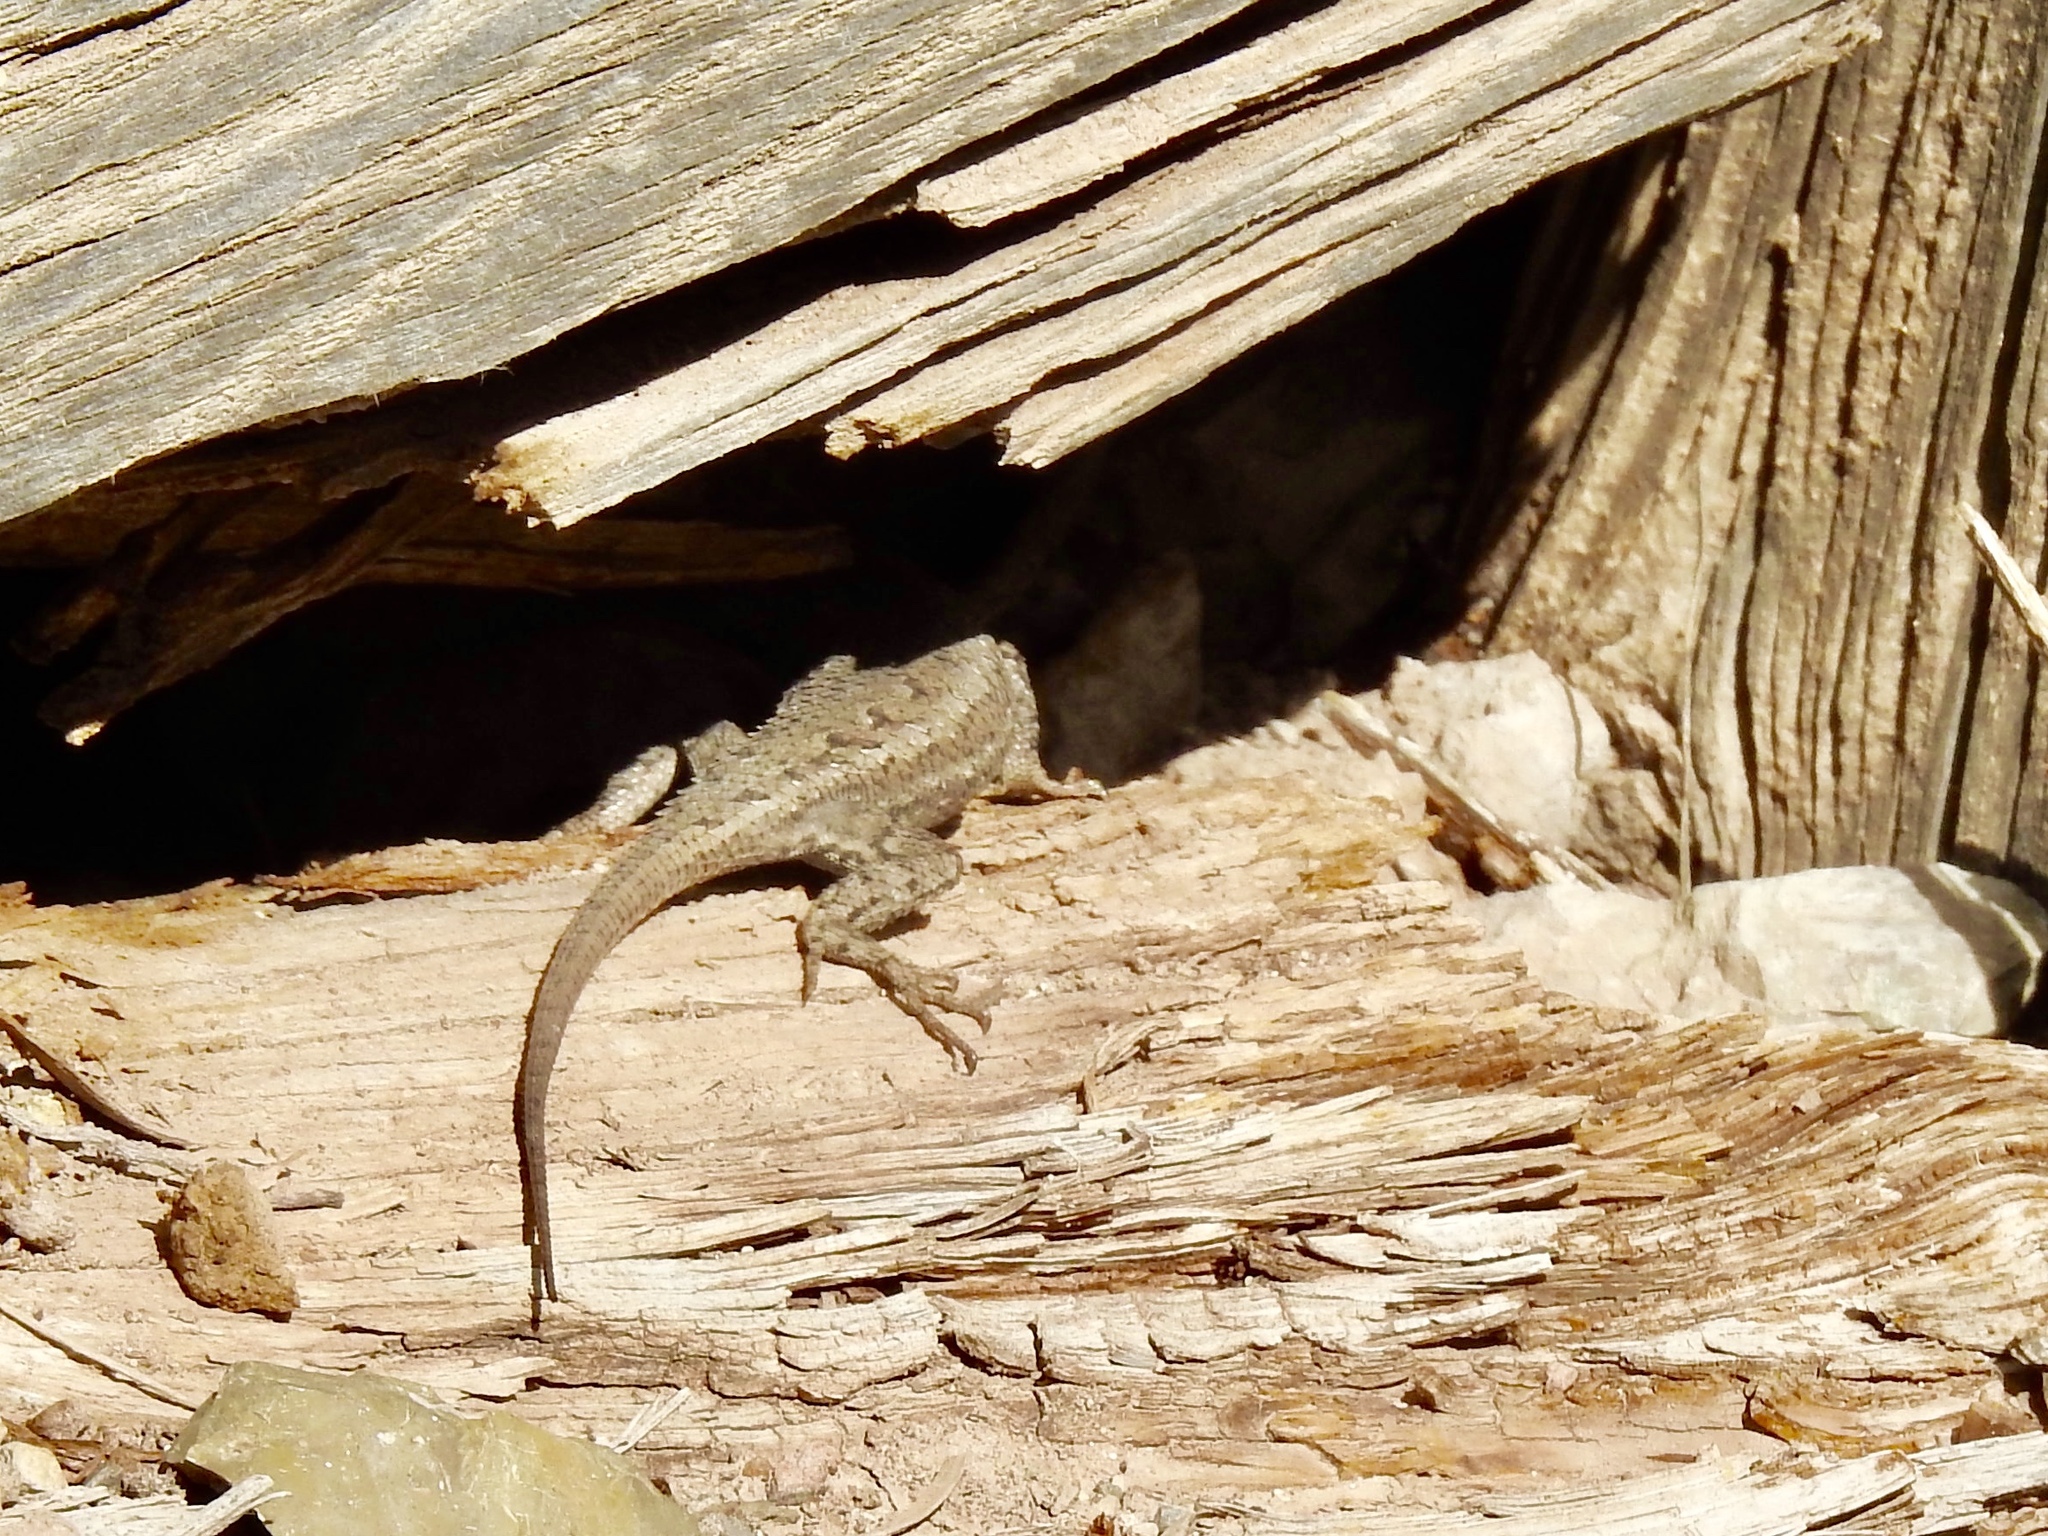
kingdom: Animalia
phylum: Chordata
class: Squamata
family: Phrynosomatidae
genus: Sceloporus
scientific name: Sceloporus cowlesi
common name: White sands prairie lizard
